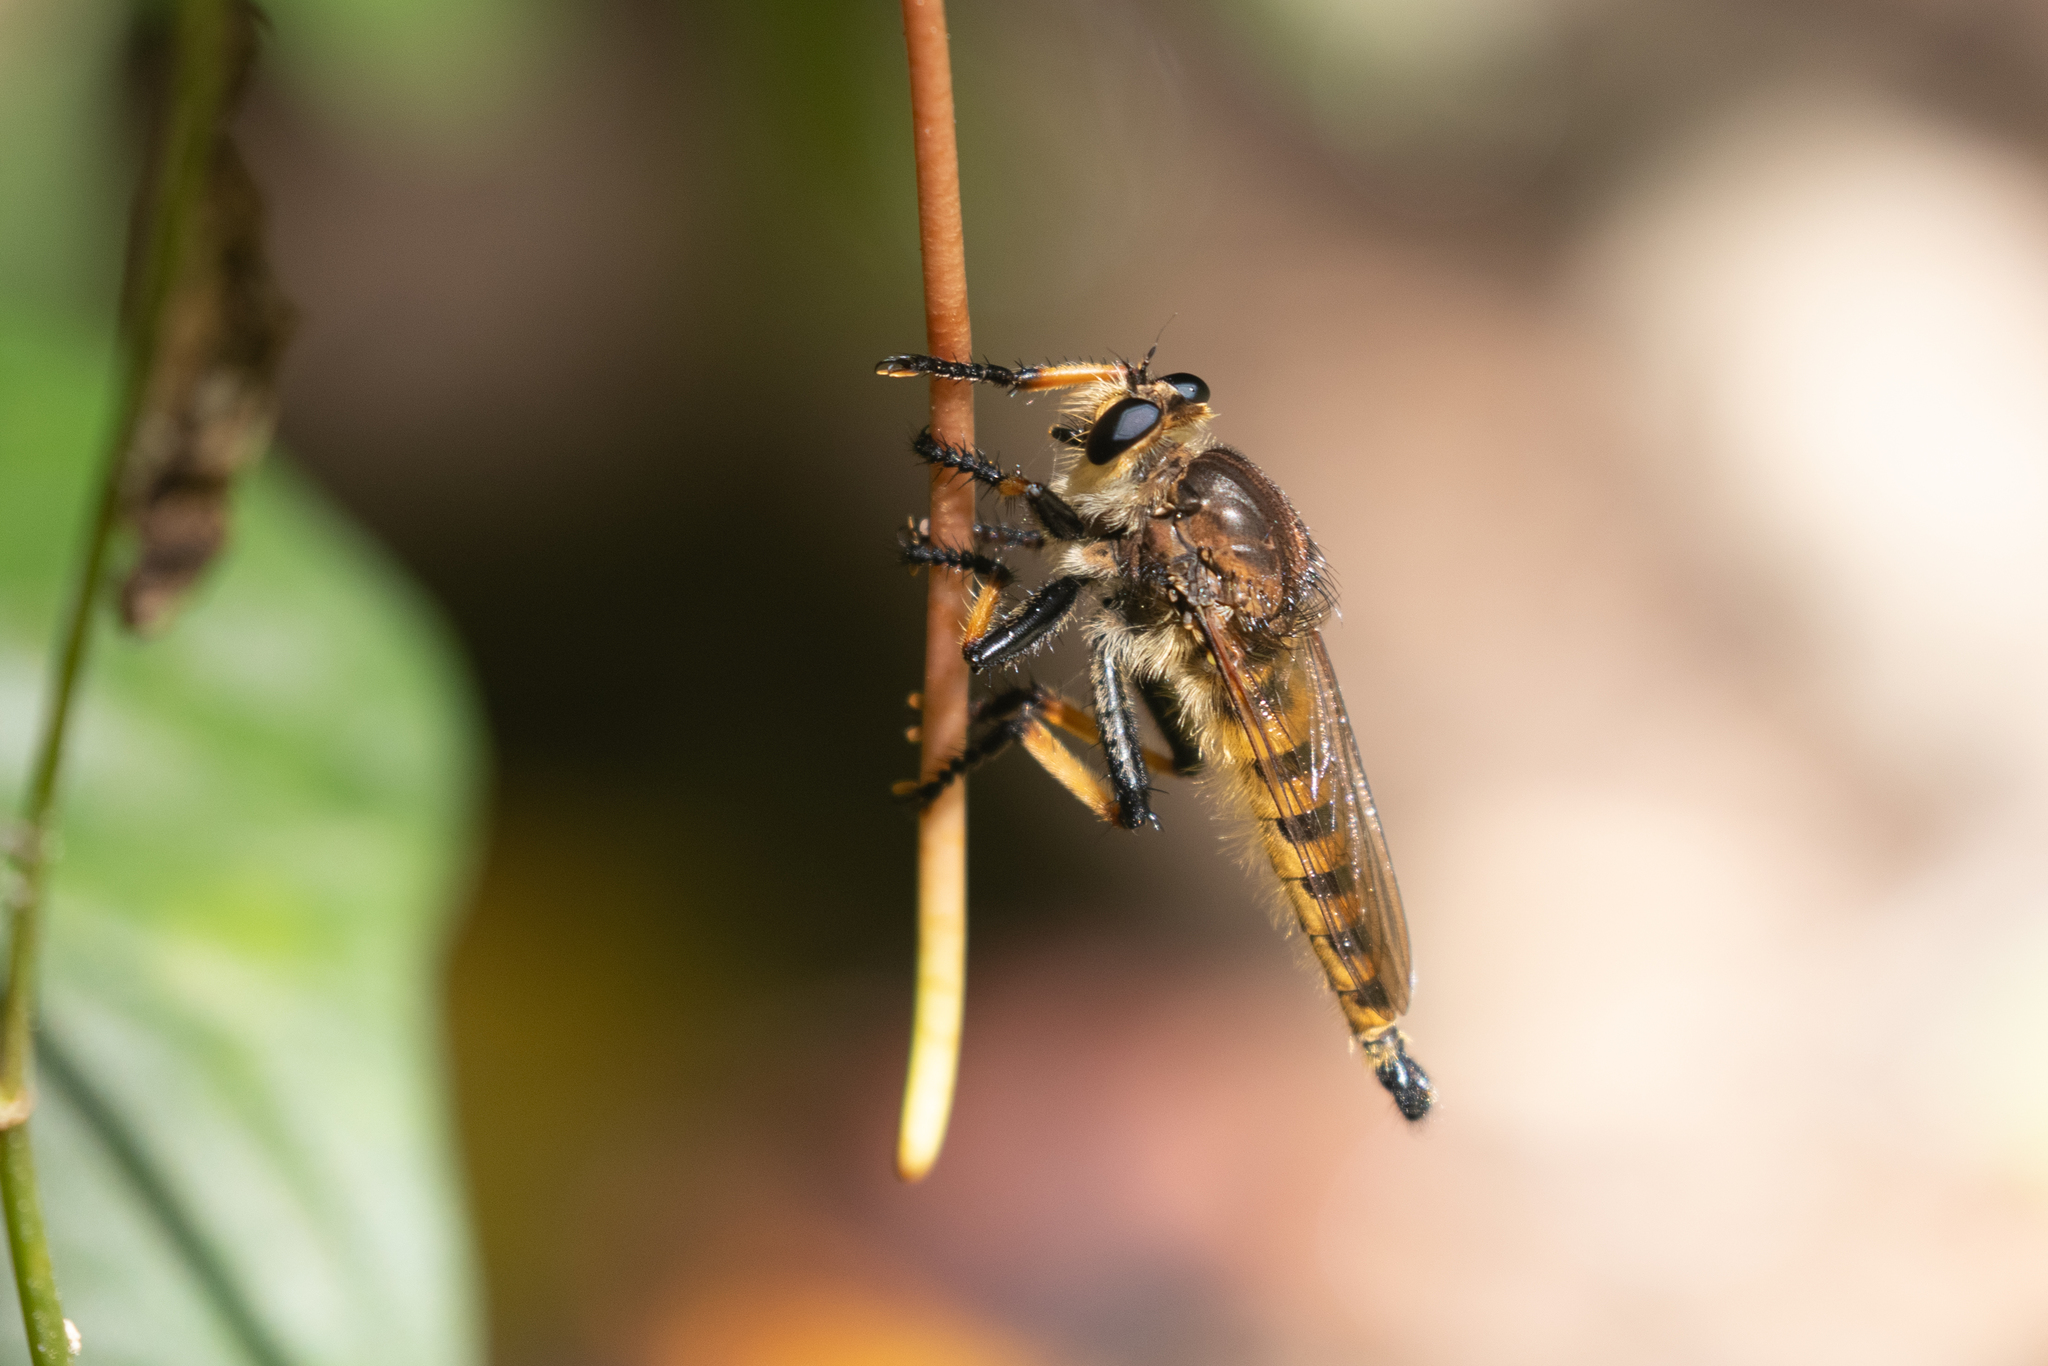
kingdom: Animalia
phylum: Arthropoda
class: Insecta
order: Diptera
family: Asilidae
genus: Promachus
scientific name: Promachus rufipes
